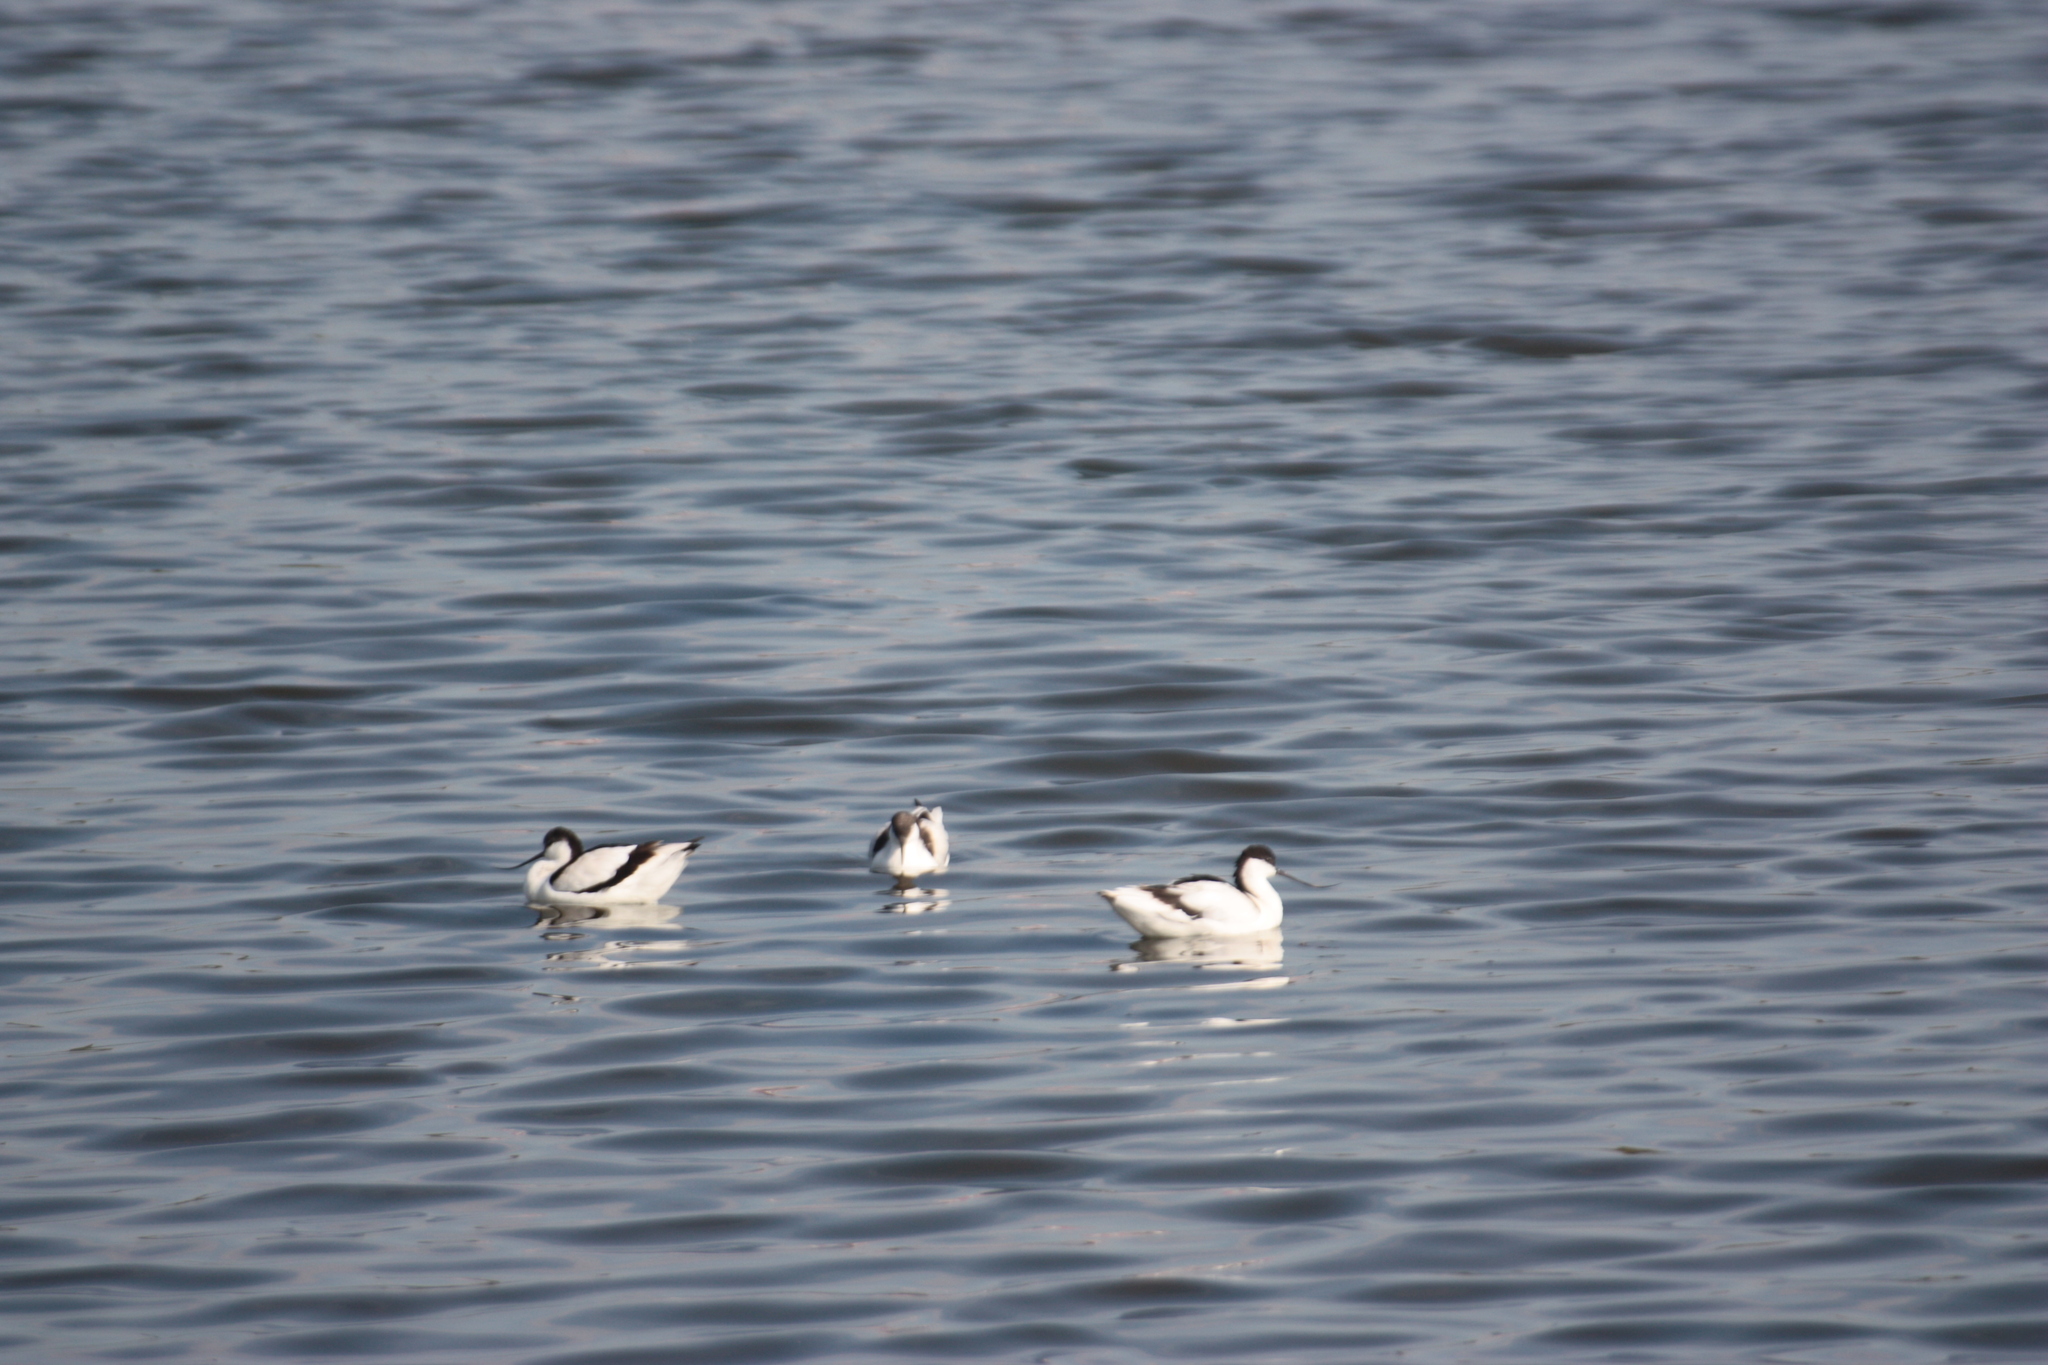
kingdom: Animalia
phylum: Chordata
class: Aves
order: Charadriiformes
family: Recurvirostridae
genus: Recurvirostra
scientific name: Recurvirostra avosetta
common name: Pied avocet
